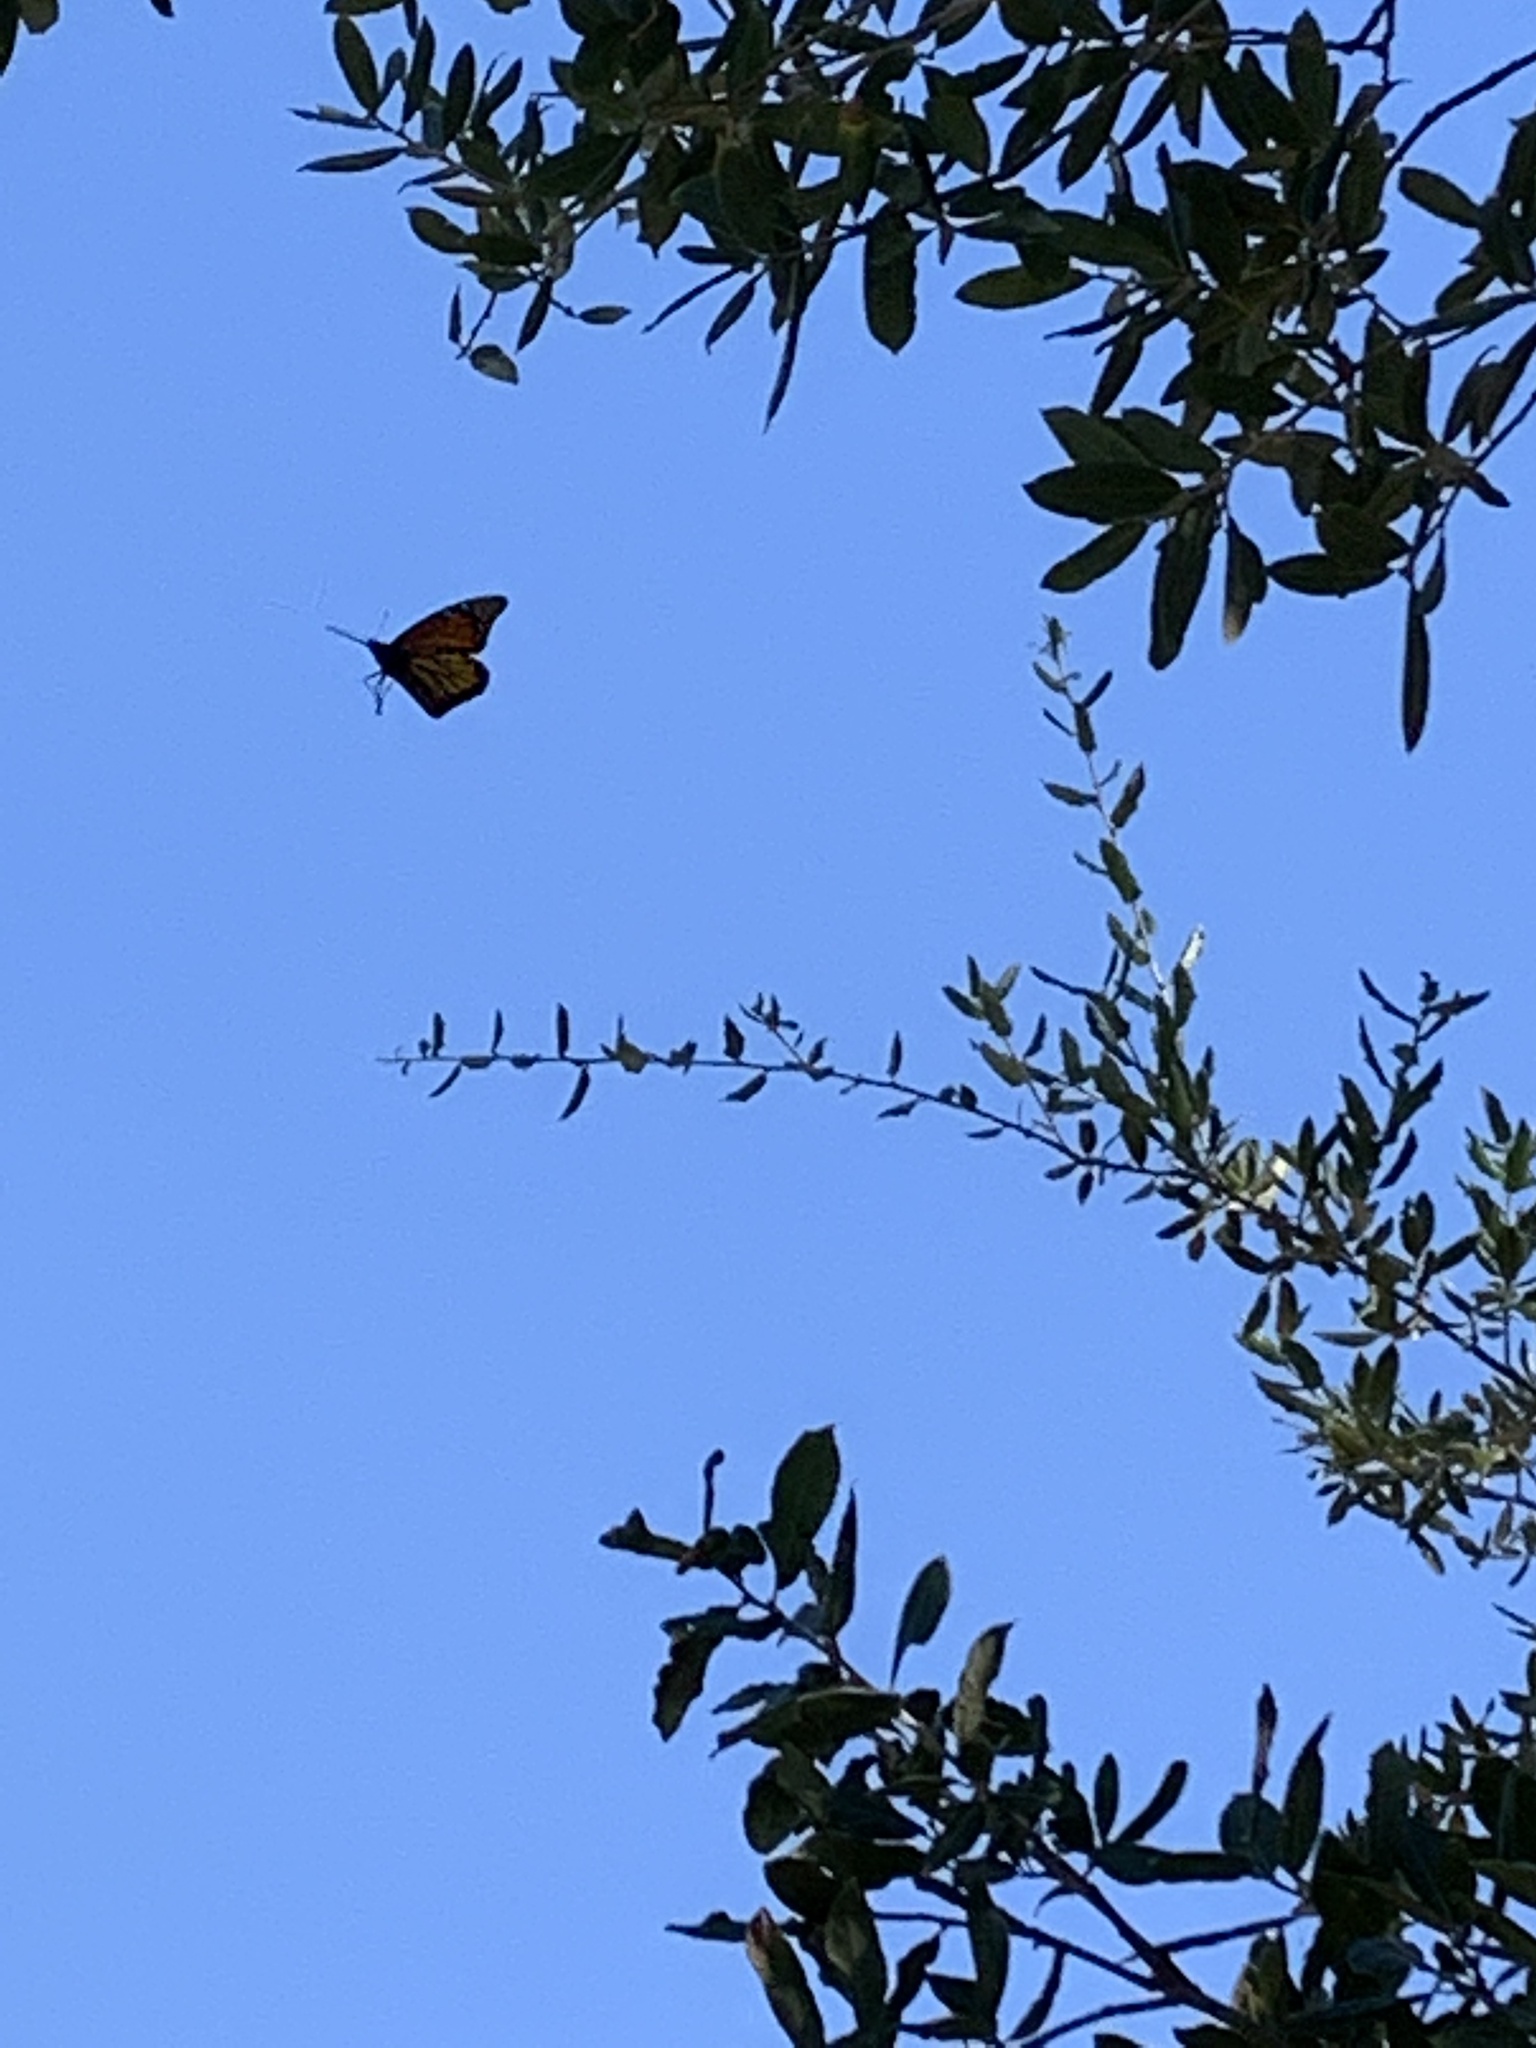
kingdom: Animalia
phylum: Arthropoda
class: Insecta
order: Lepidoptera
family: Nymphalidae
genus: Danaus
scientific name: Danaus plexippus
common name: Monarch
